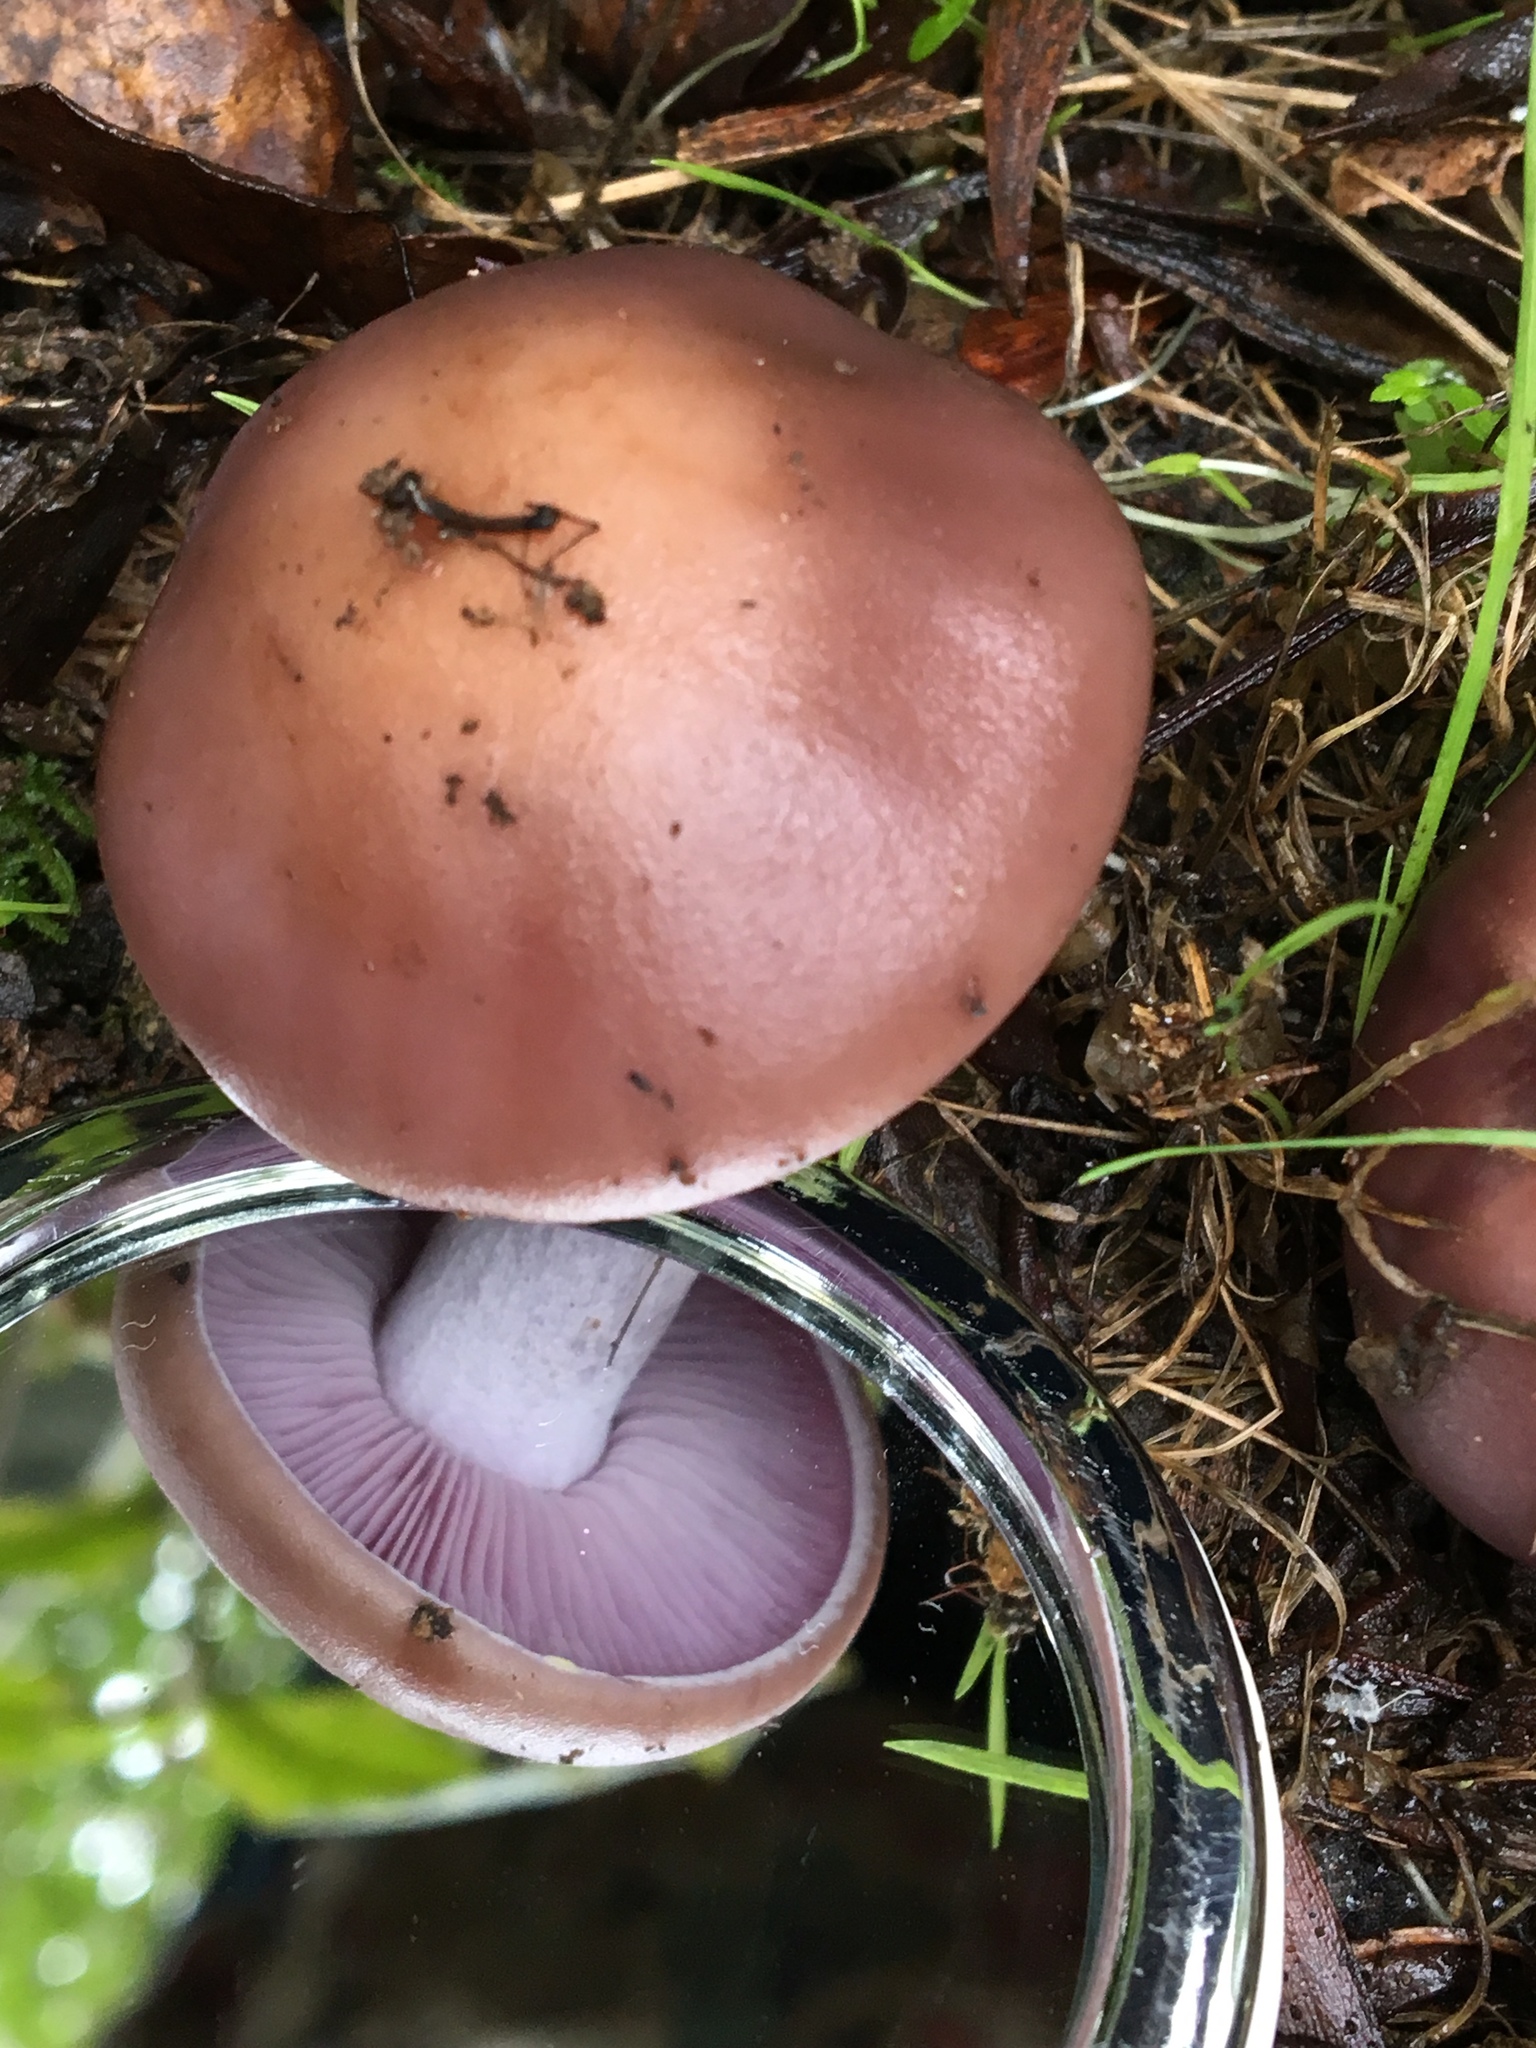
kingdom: Fungi
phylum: Basidiomycota
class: Agaricomycetes
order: Agaricales
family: Tricholomataceae
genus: Collybia
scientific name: Collybia
